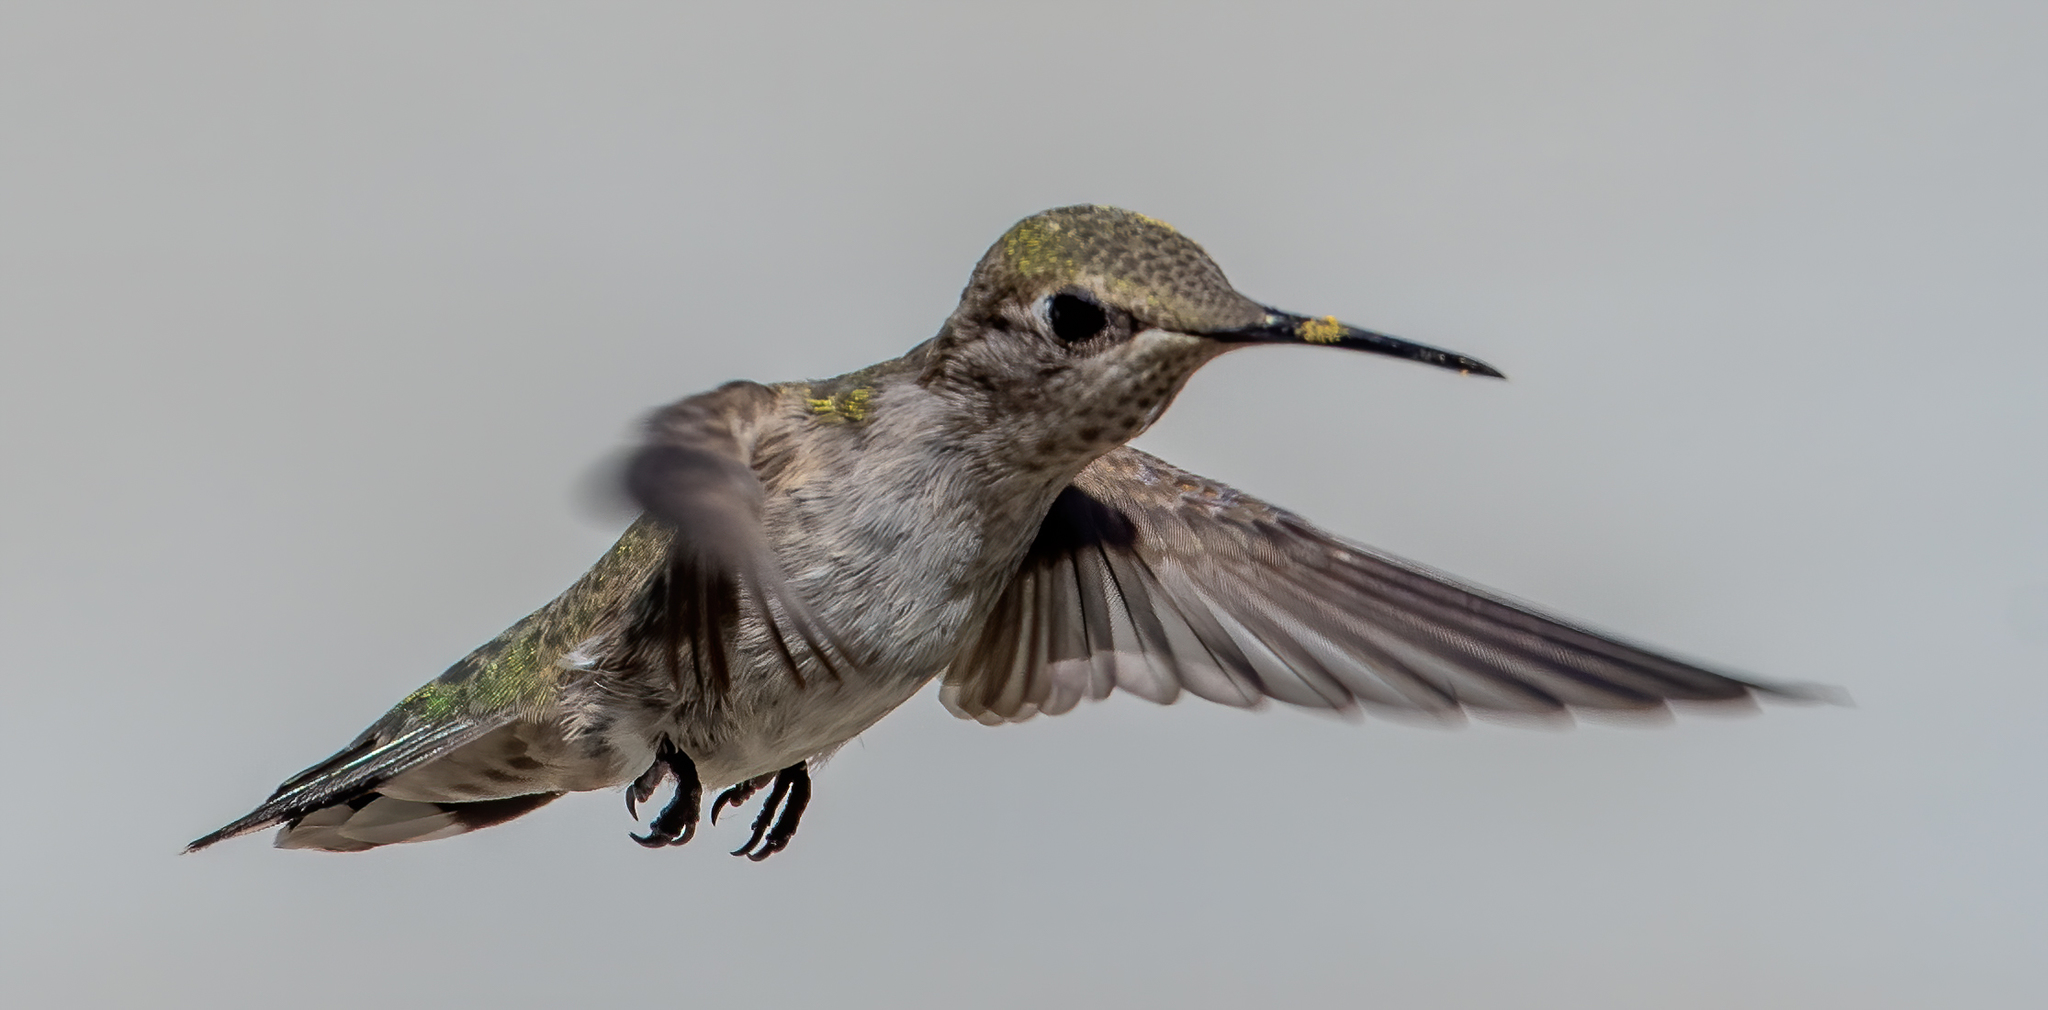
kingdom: Animalia
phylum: Chordata
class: Aves
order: Apodiformes
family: Trochilidae
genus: Calypte
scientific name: Calypte anna
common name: Anna's hummingbird
